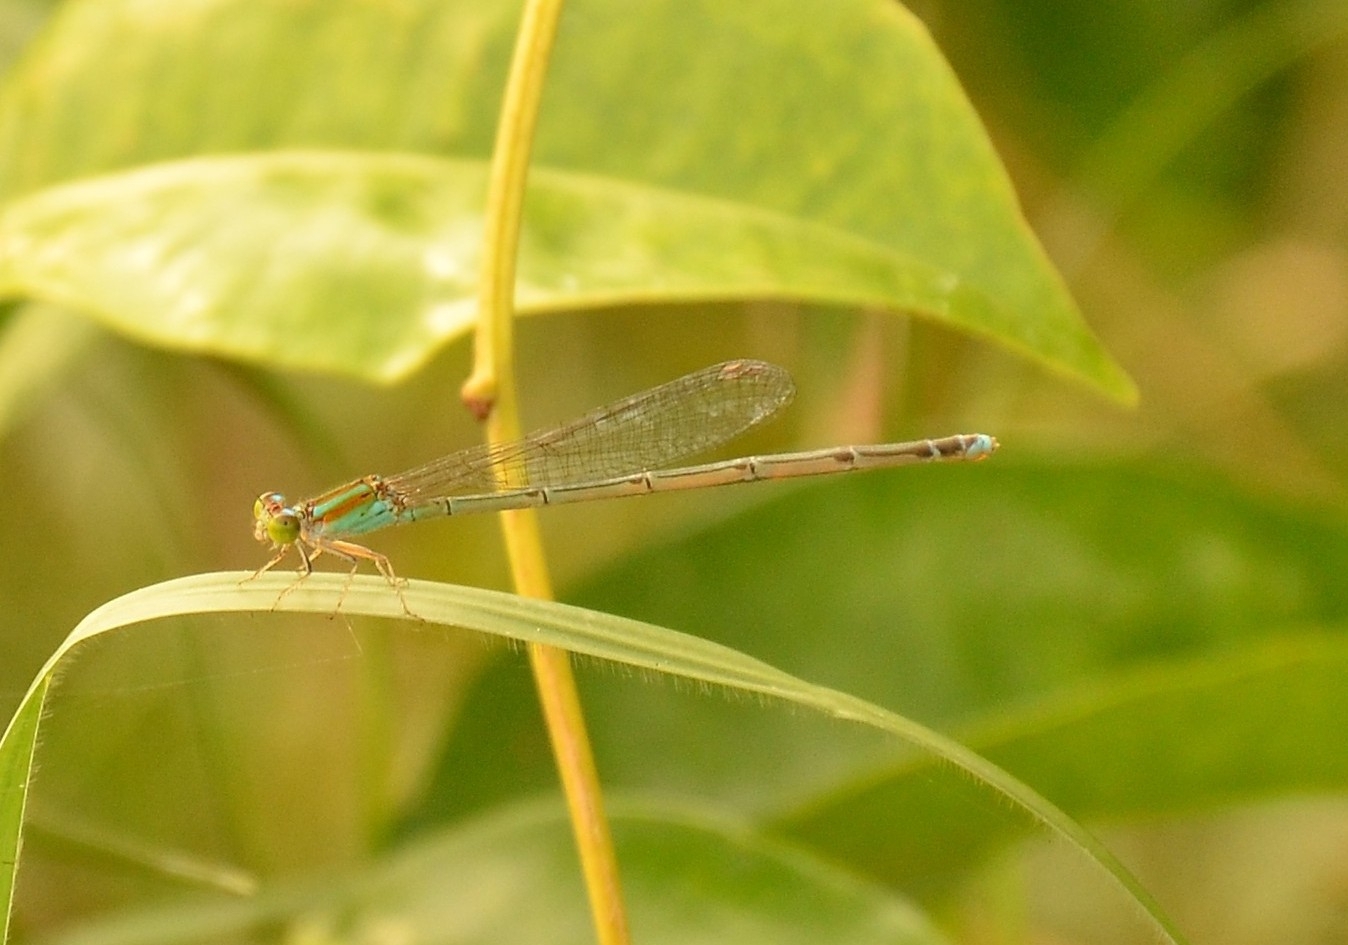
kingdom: Animalia
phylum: Arthropoda
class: Insecta
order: Odonata
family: Coenagrionidae
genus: Pseudagrion
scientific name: Pseudagrion microcephalum
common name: Blue riverdamsel
